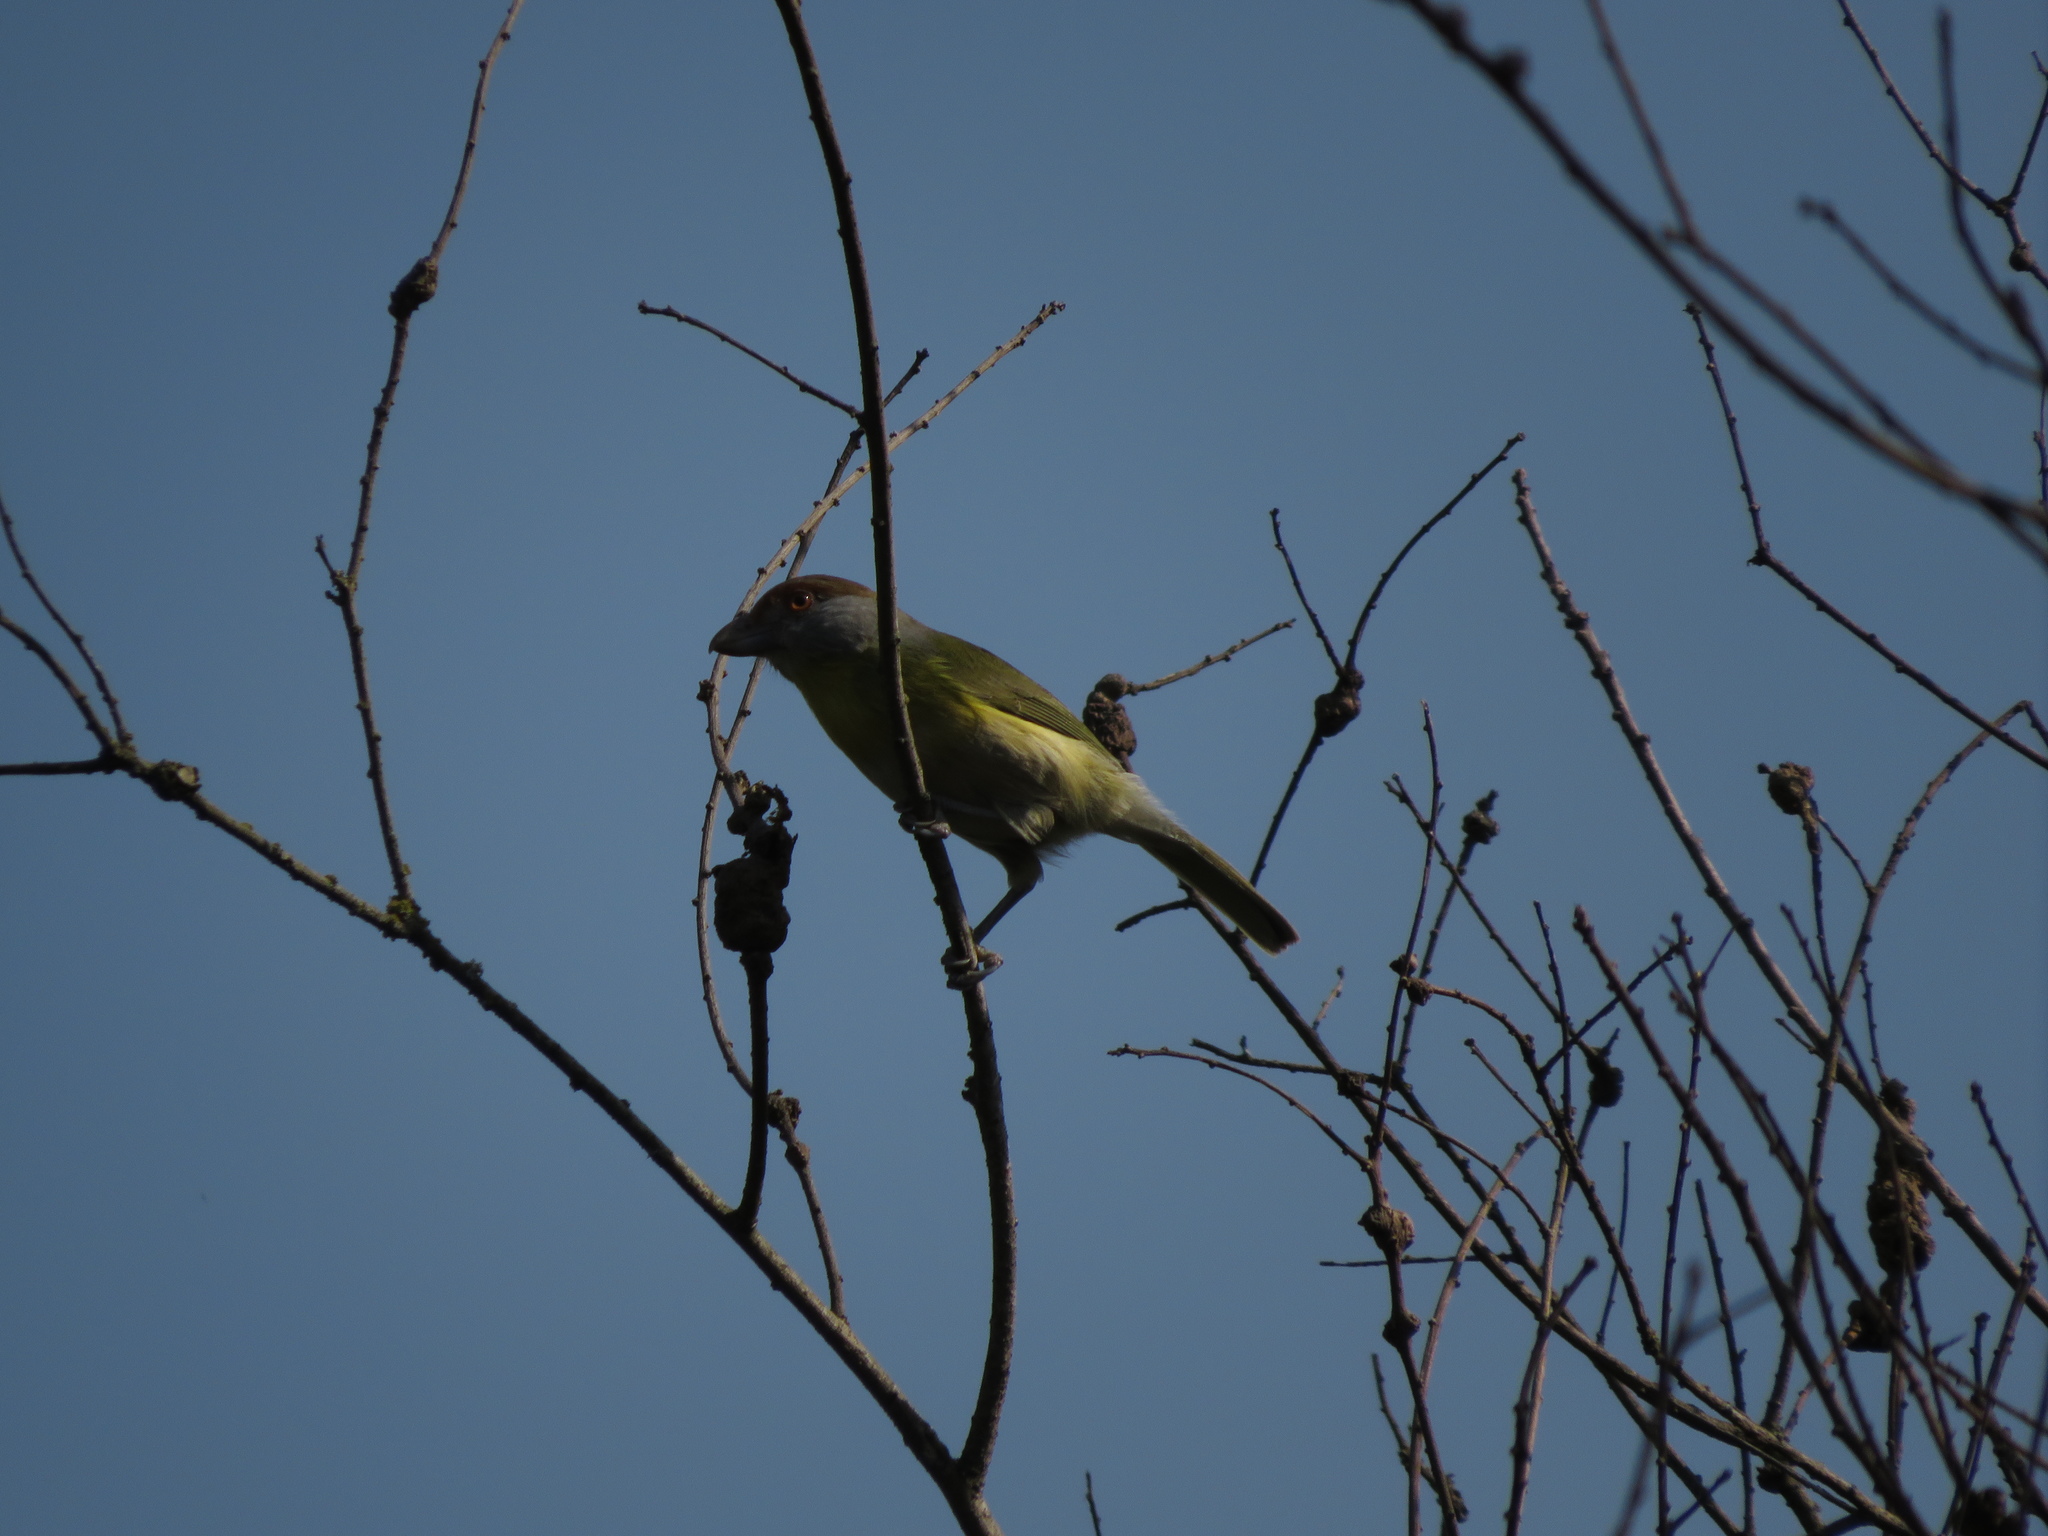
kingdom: Animalia
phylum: Chordata
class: Aves
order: Passeriformes
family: Vireonidae
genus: Cyclarhis
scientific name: Cyclarhis gujanensis
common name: Rufous-browed peppershrike
